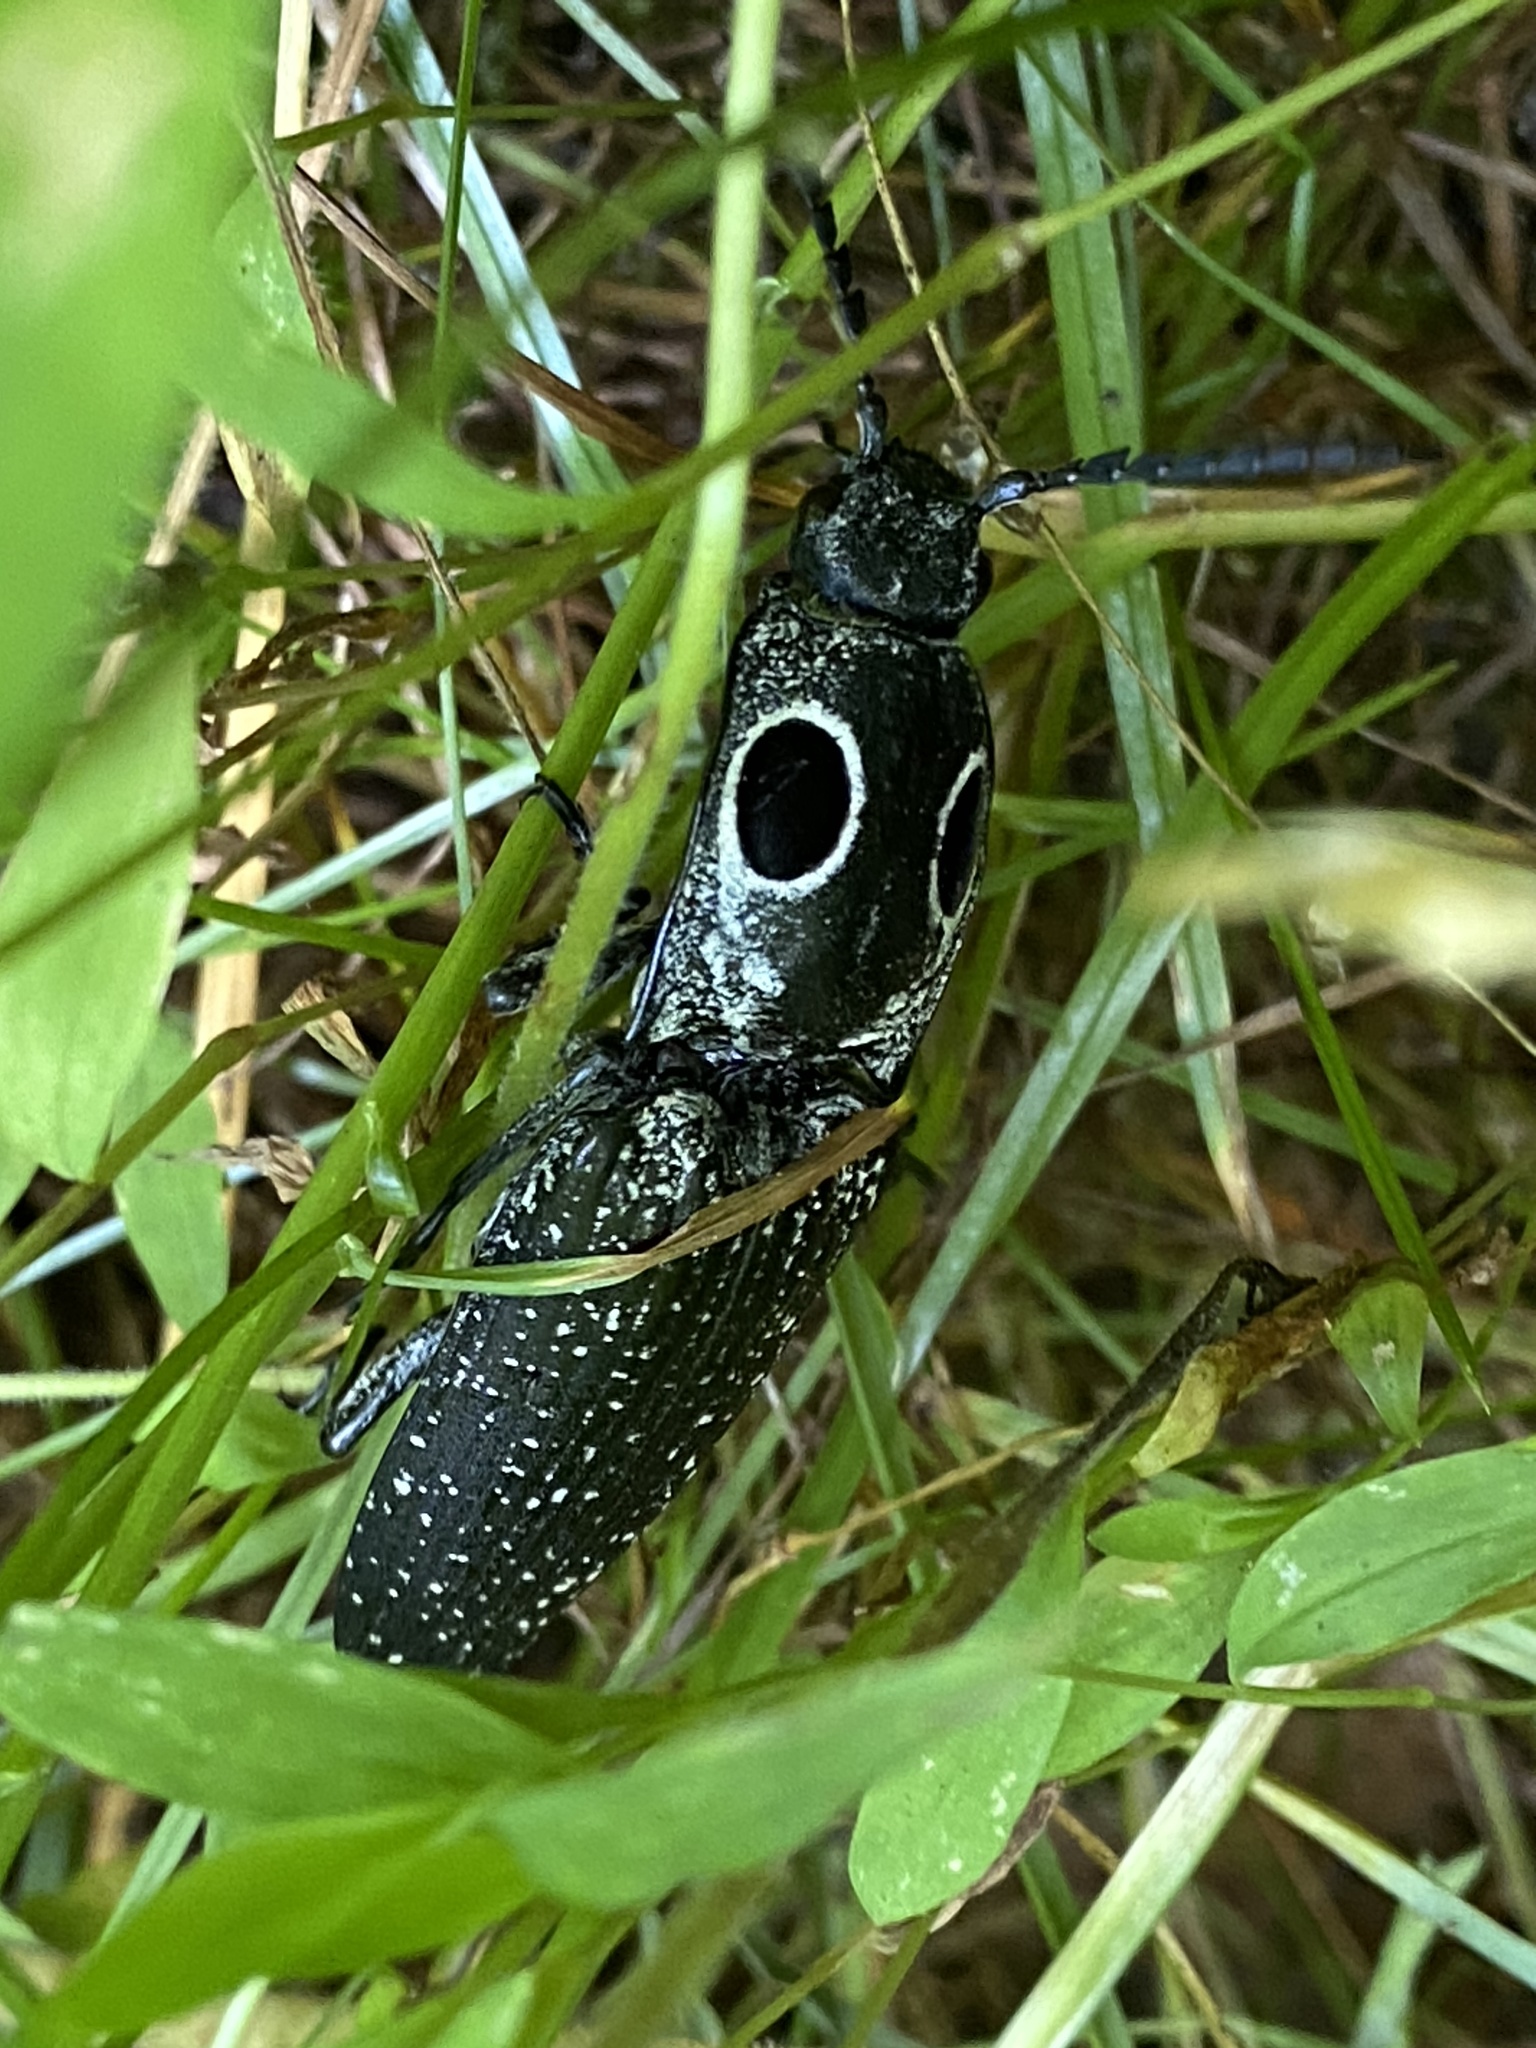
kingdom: Animalia
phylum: Arthropoda
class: Insecta
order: Coleoptera
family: Elateridae
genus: Alaus
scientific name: Alaus oculatus
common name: Eastern eyed click beetle
